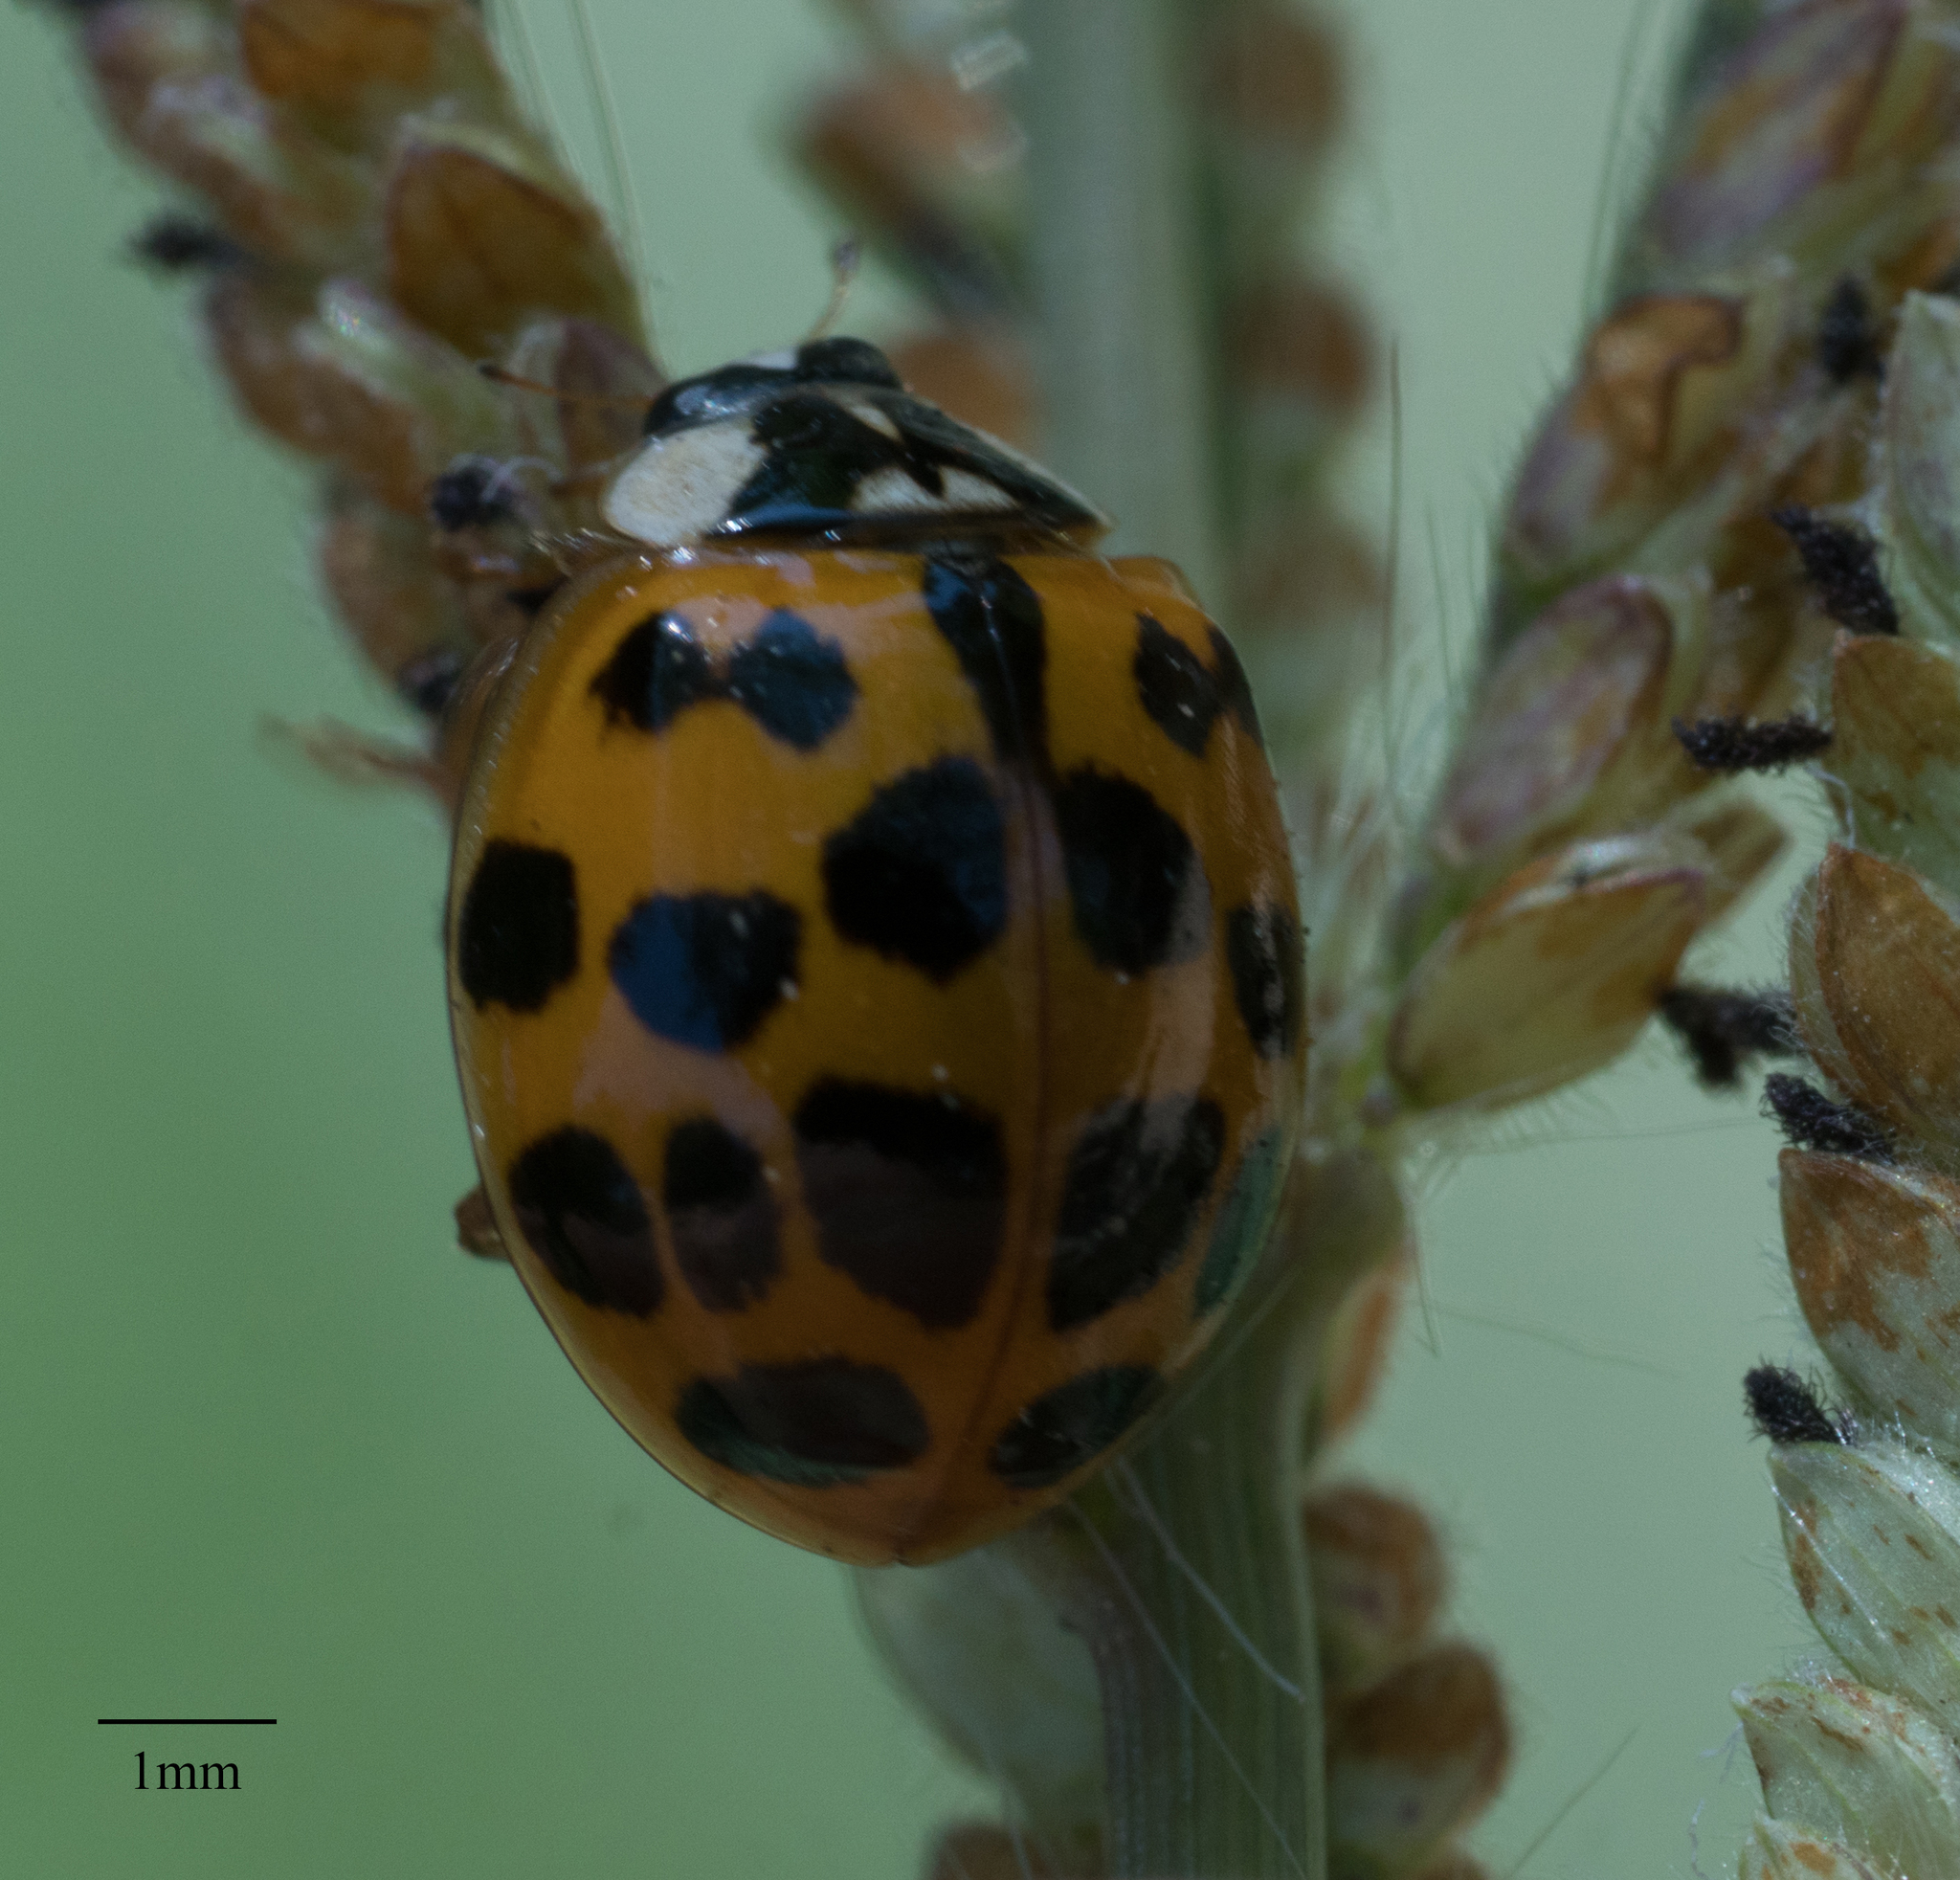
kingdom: Animalia
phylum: Arthropoda
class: Insecta
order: Coleoptera
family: Coccinellidae
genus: Harmonia
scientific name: Harmonia axyridis
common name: Harlequin ladybird
